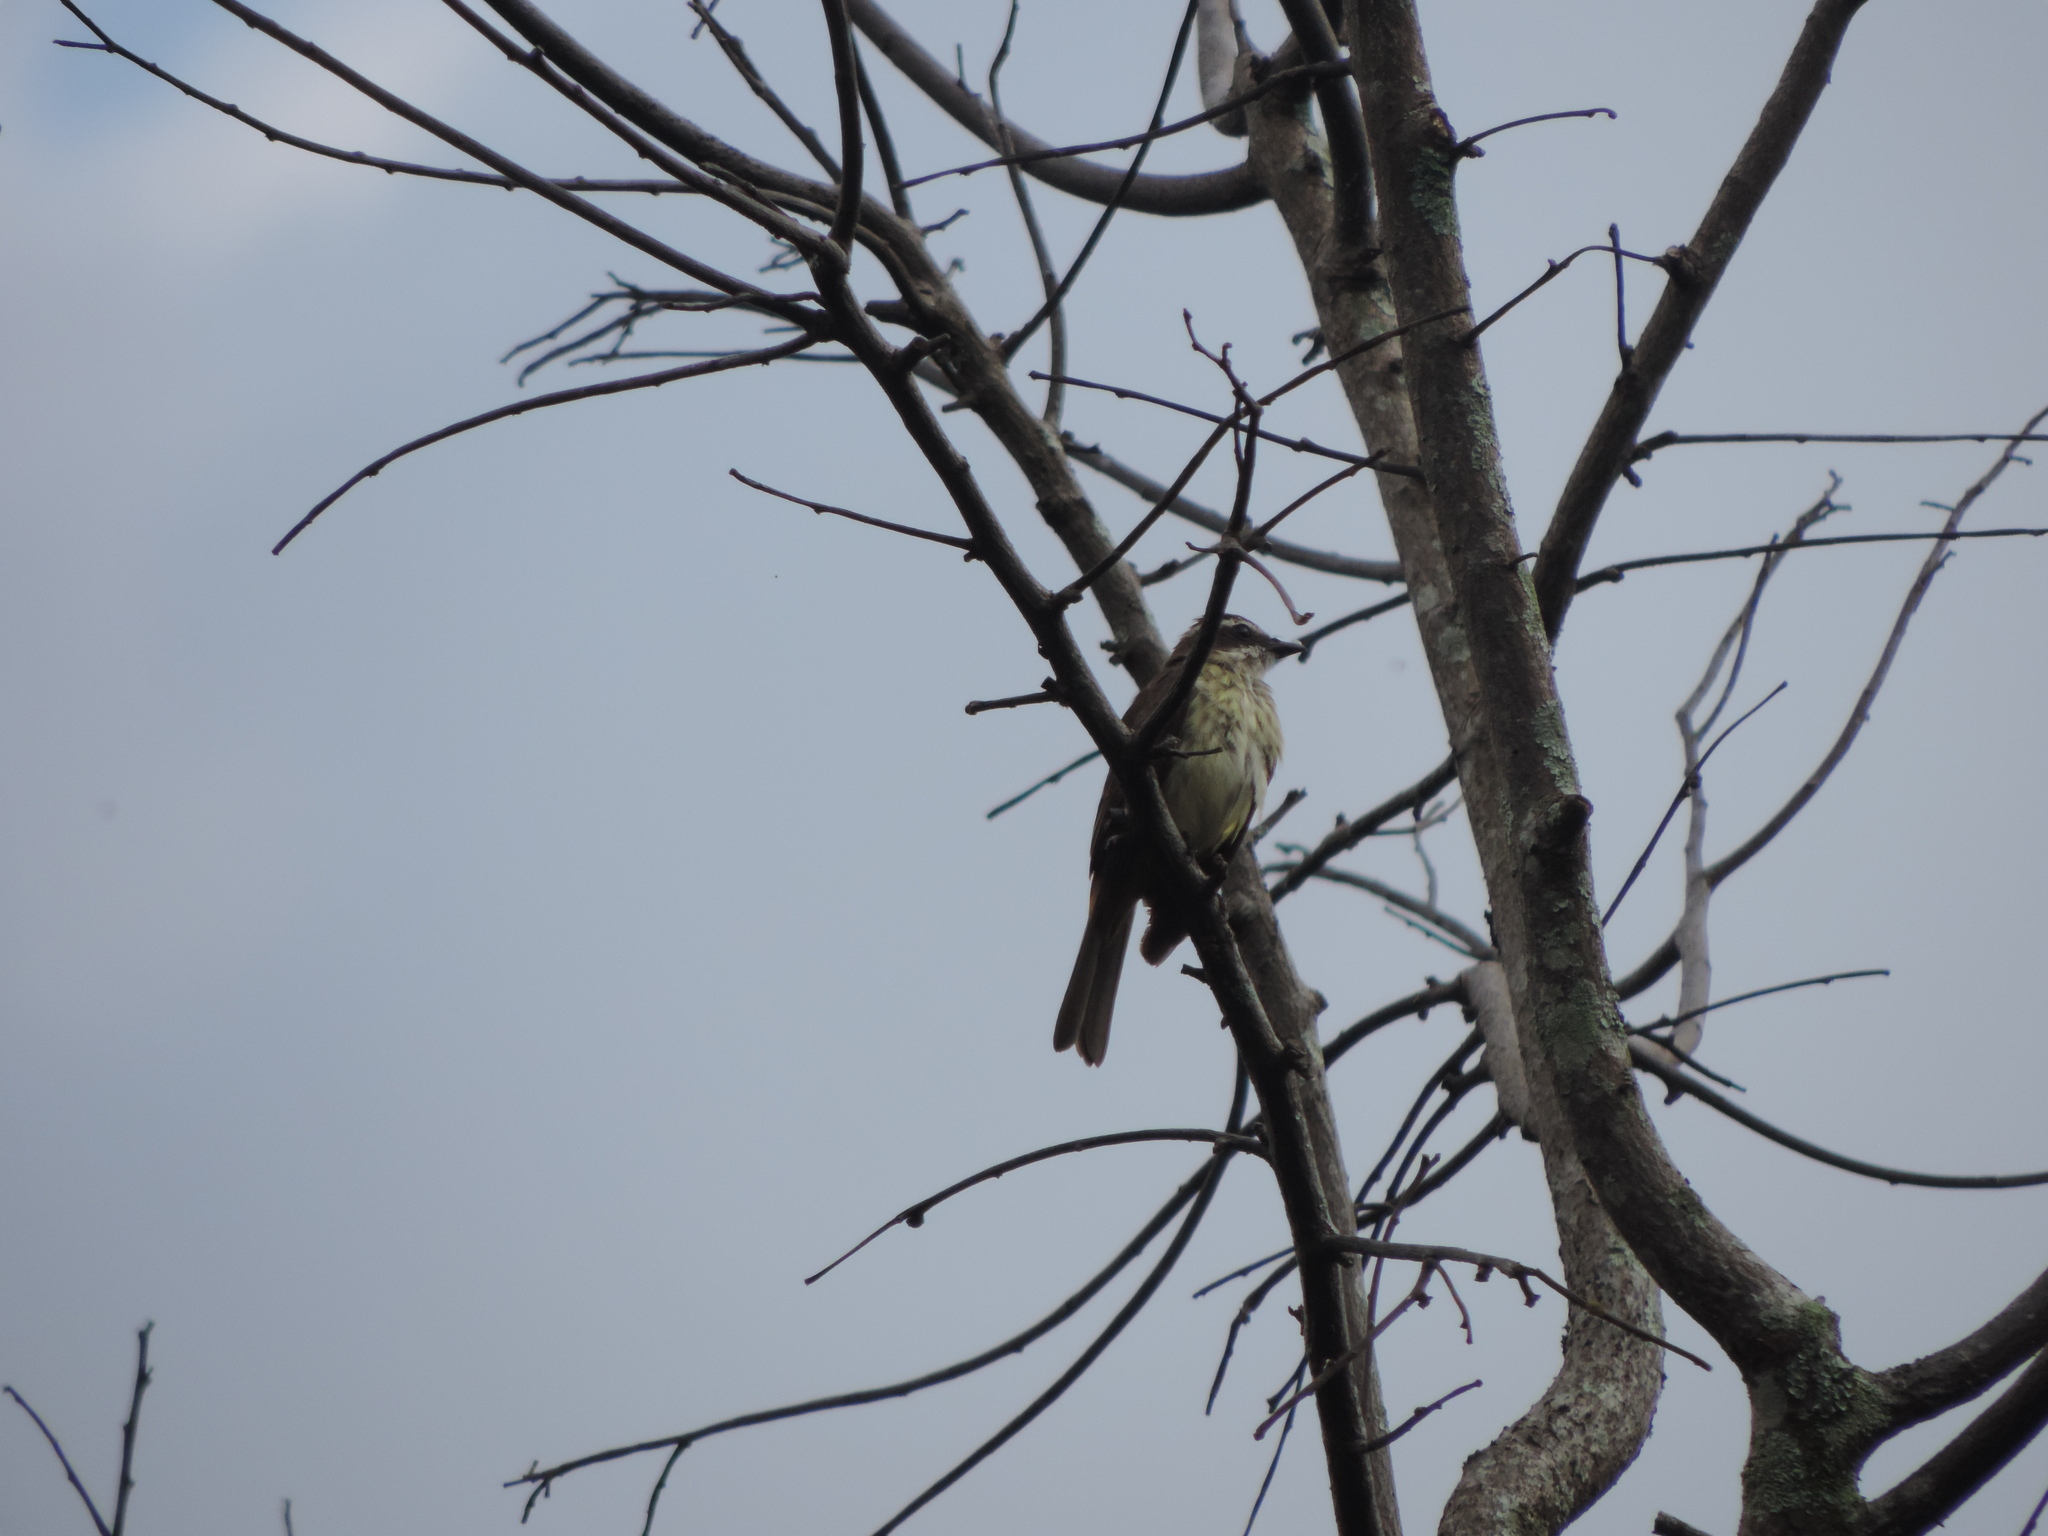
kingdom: Animalia
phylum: Chordata
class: Aves
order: Passeriformes
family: Tyrannidae
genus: Legatus
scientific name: Legatus leucophaius
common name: Piratic flycatcher
